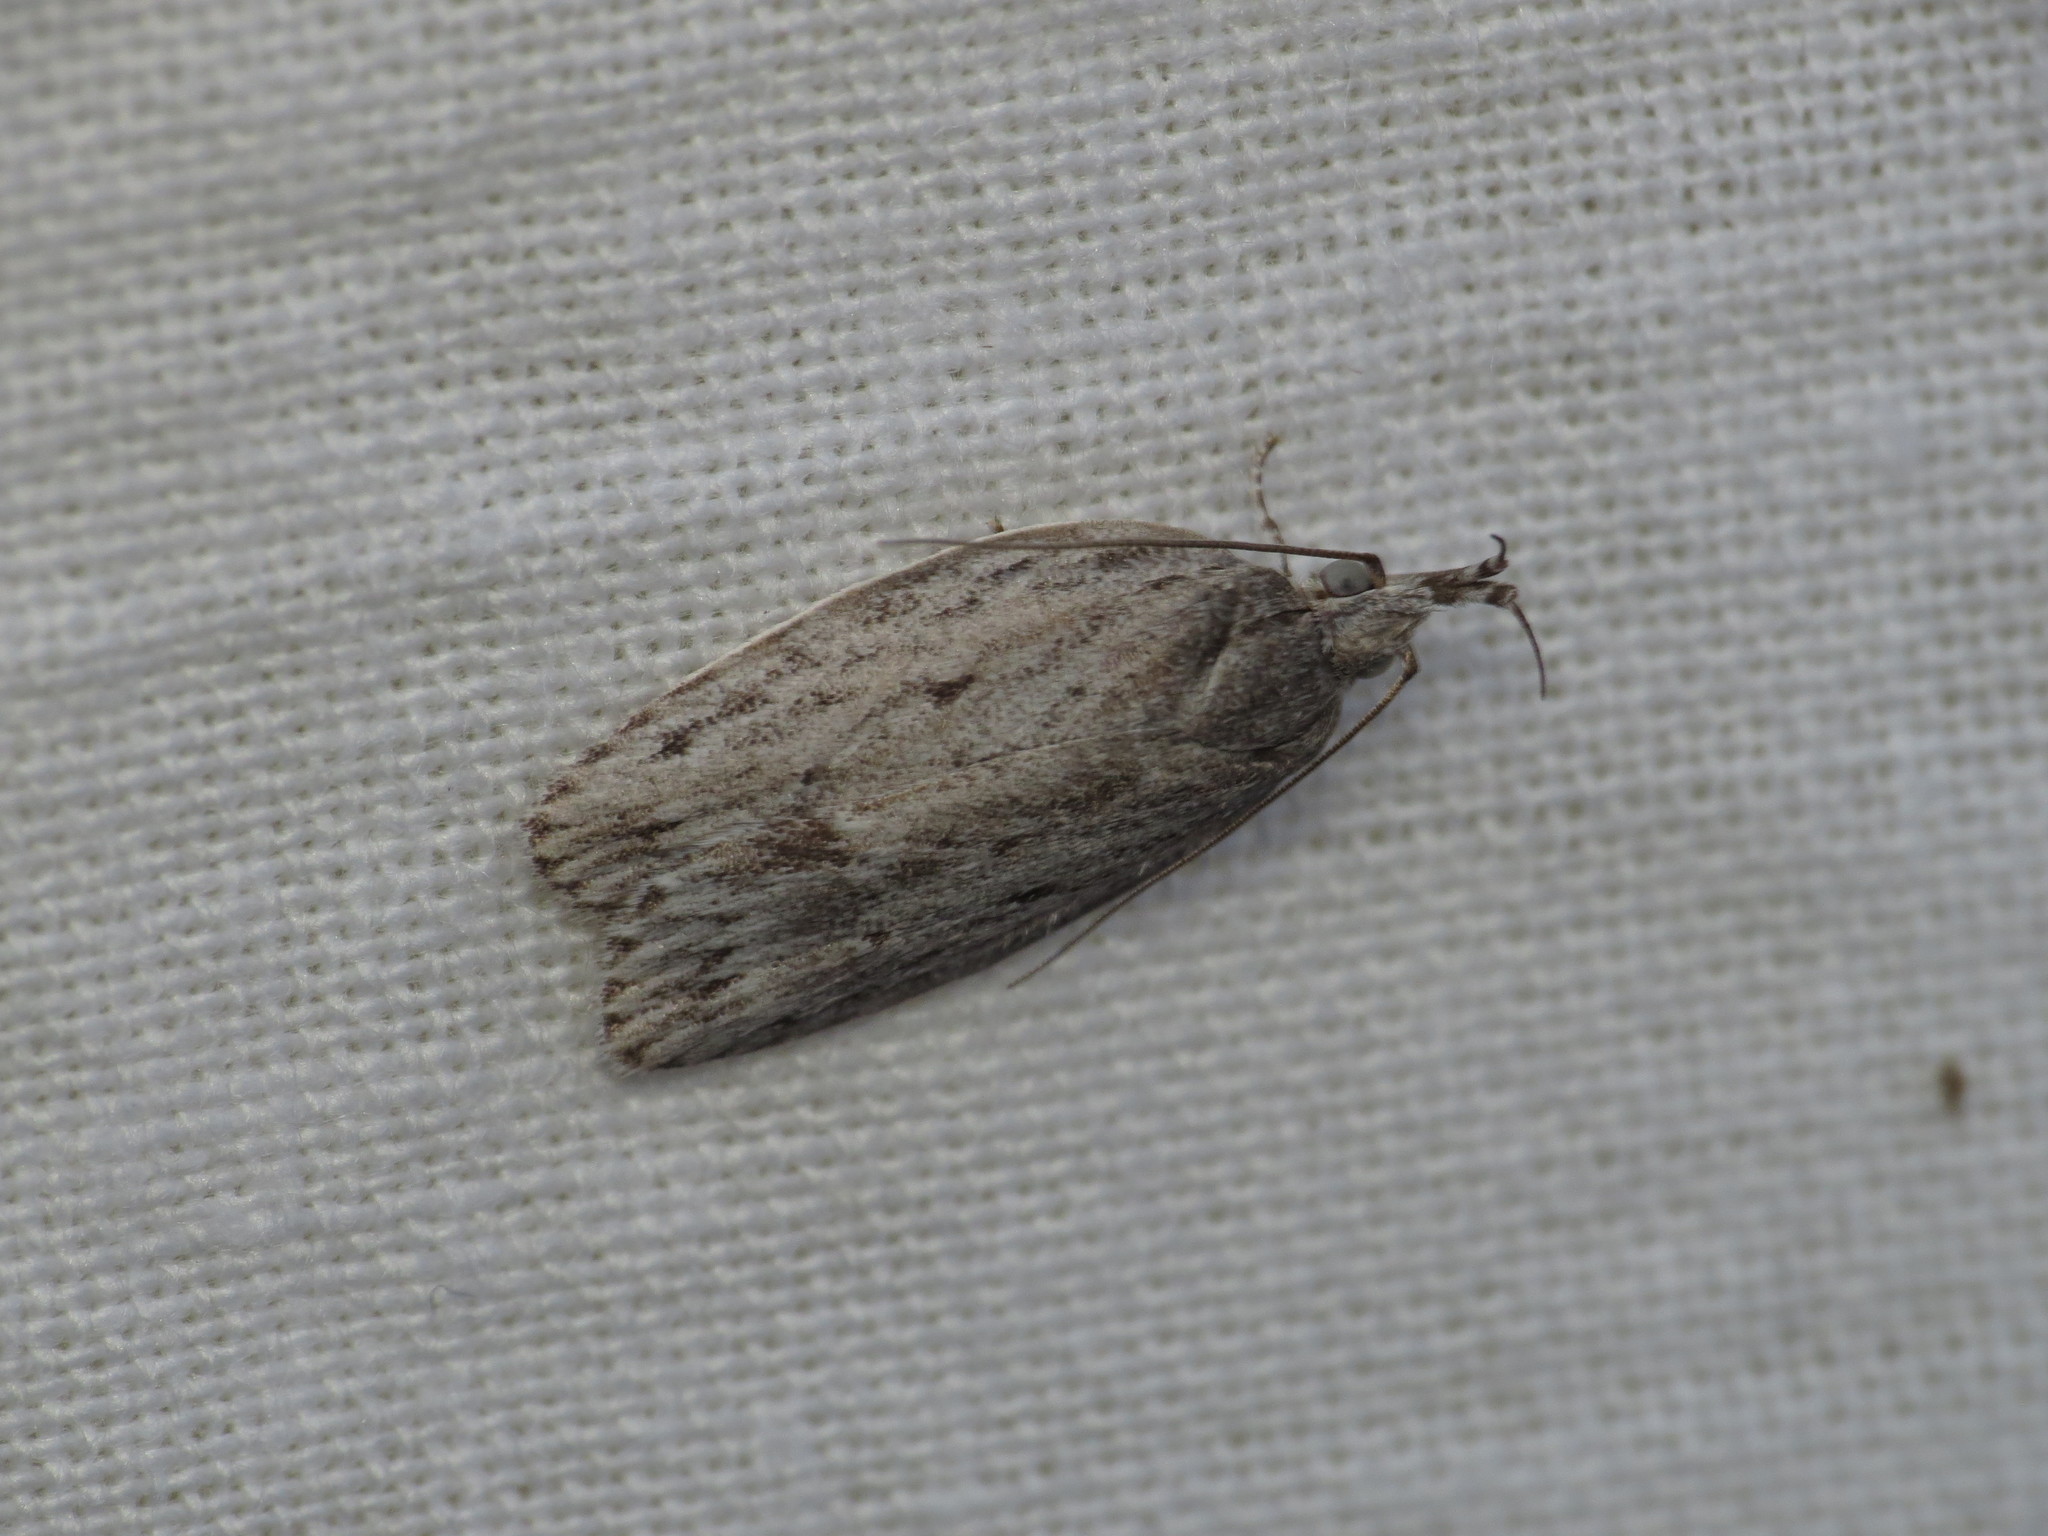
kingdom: Animalia
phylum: Arthropoda
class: Insecta
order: Lepidoptera
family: Depressariidae
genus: Pedois
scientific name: Pedois lewinella
